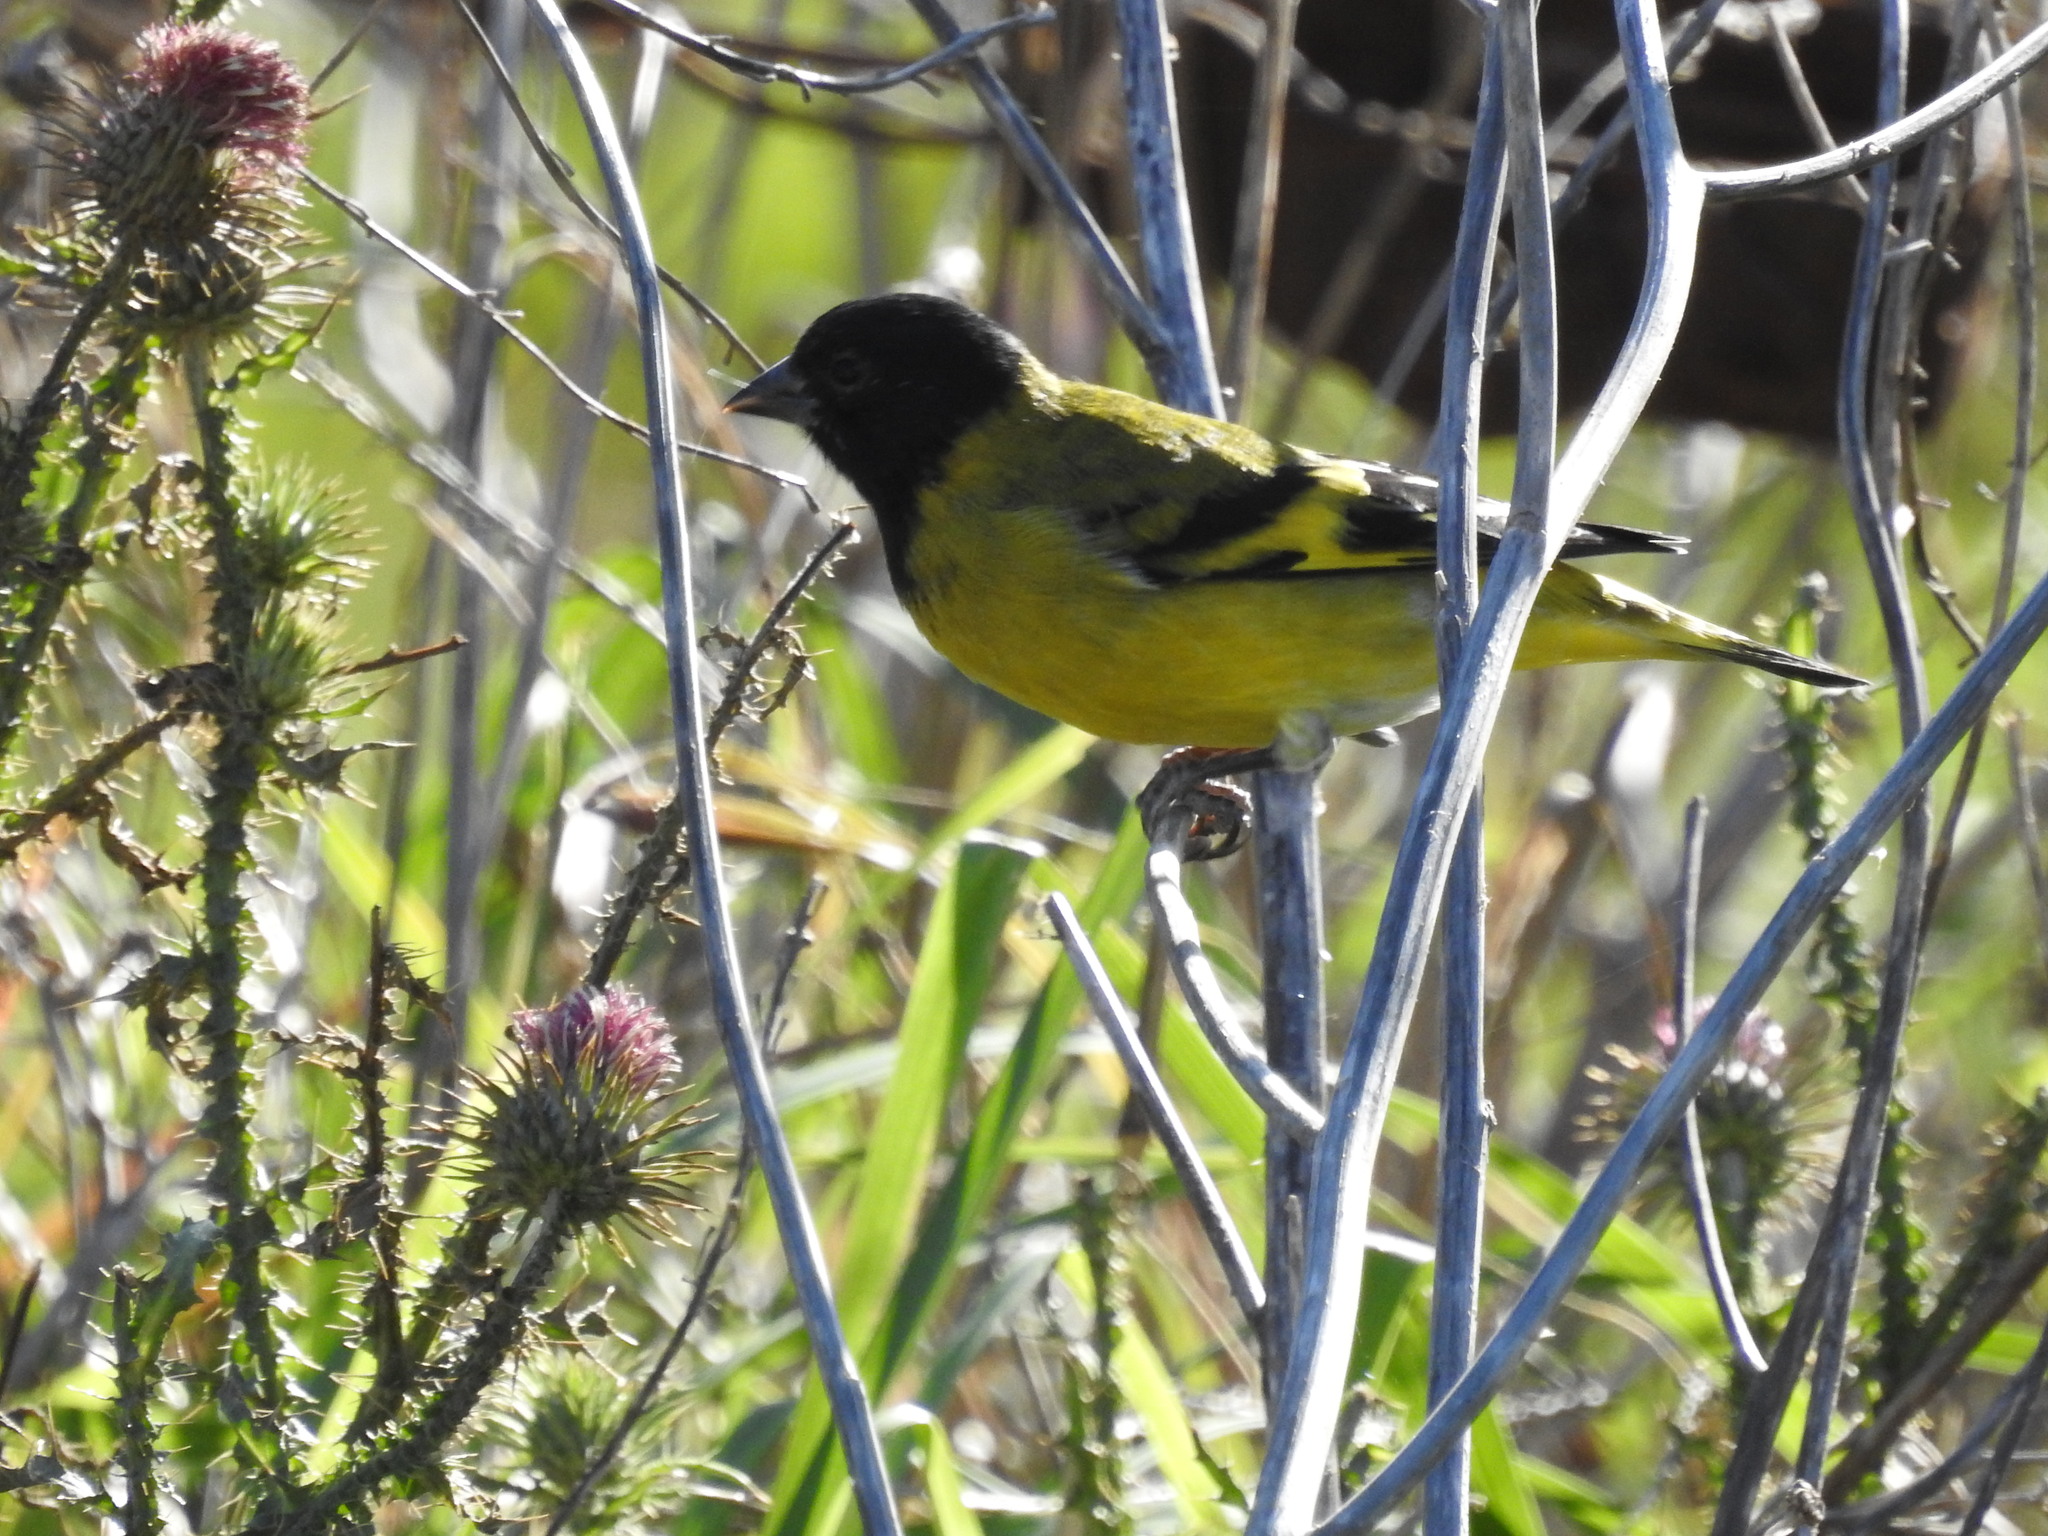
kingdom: Animalia
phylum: Chordata
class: Aves
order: Passeriformes
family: Fringillidae
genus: Spinus
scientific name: Spinus magellanicus
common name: Hooded siskin
